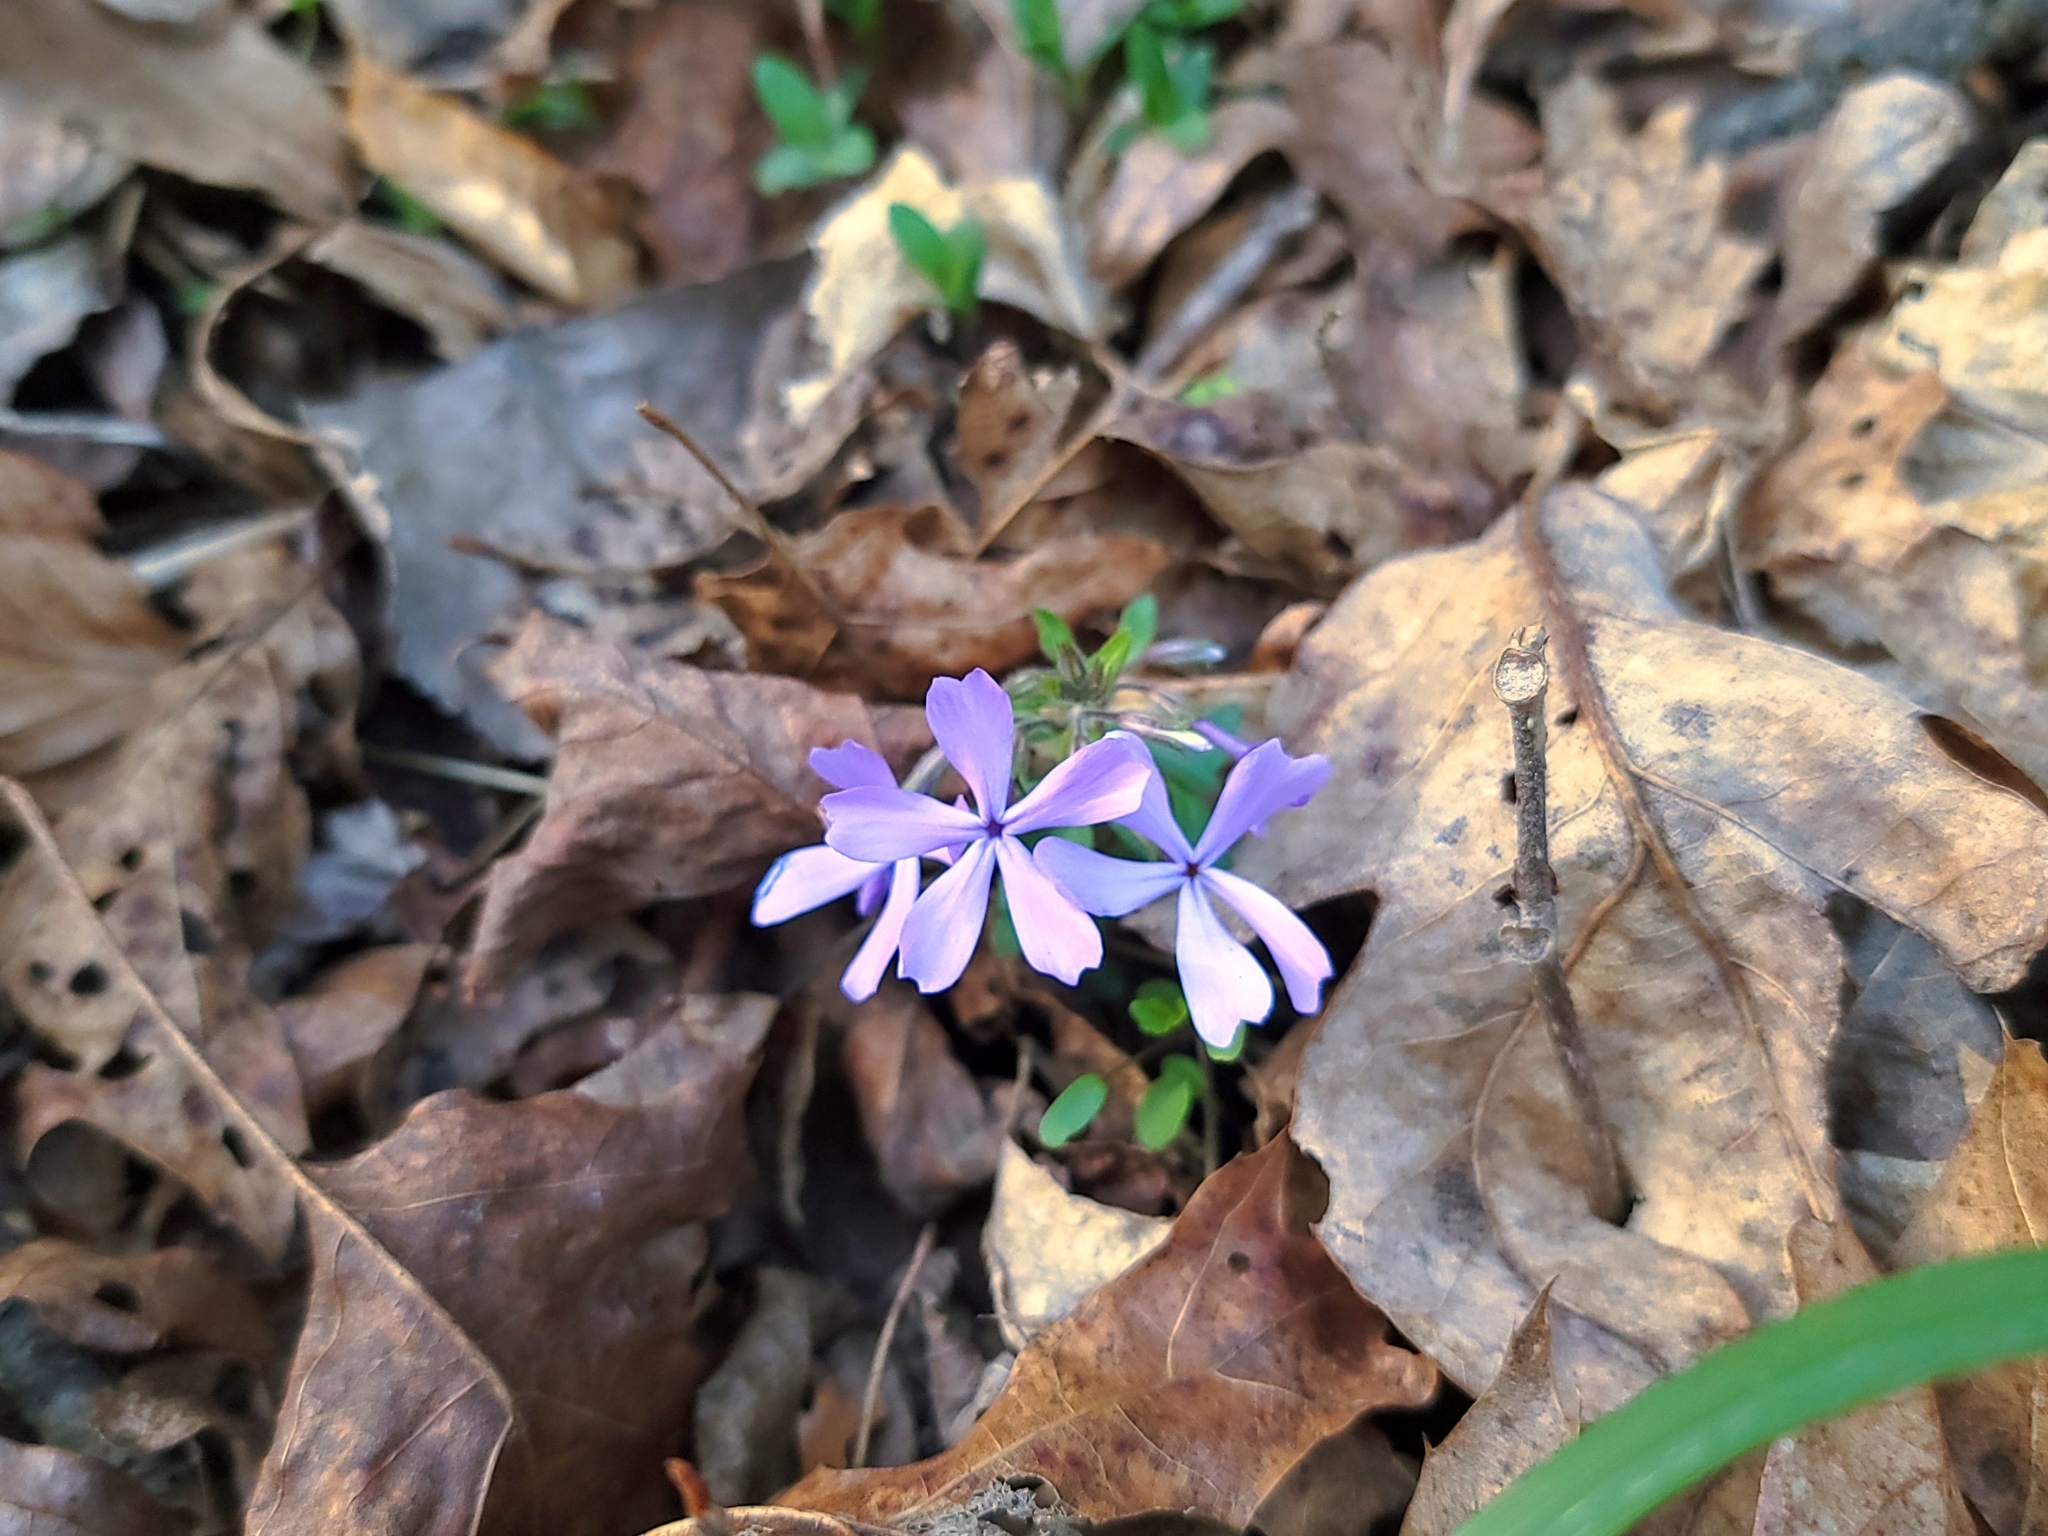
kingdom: Plantae
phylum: Tracheophyta
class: Magnoliopsida
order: Ericales
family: Polemoniaceae
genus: Phlox
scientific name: Phlox divaricata
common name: Blue phlox
